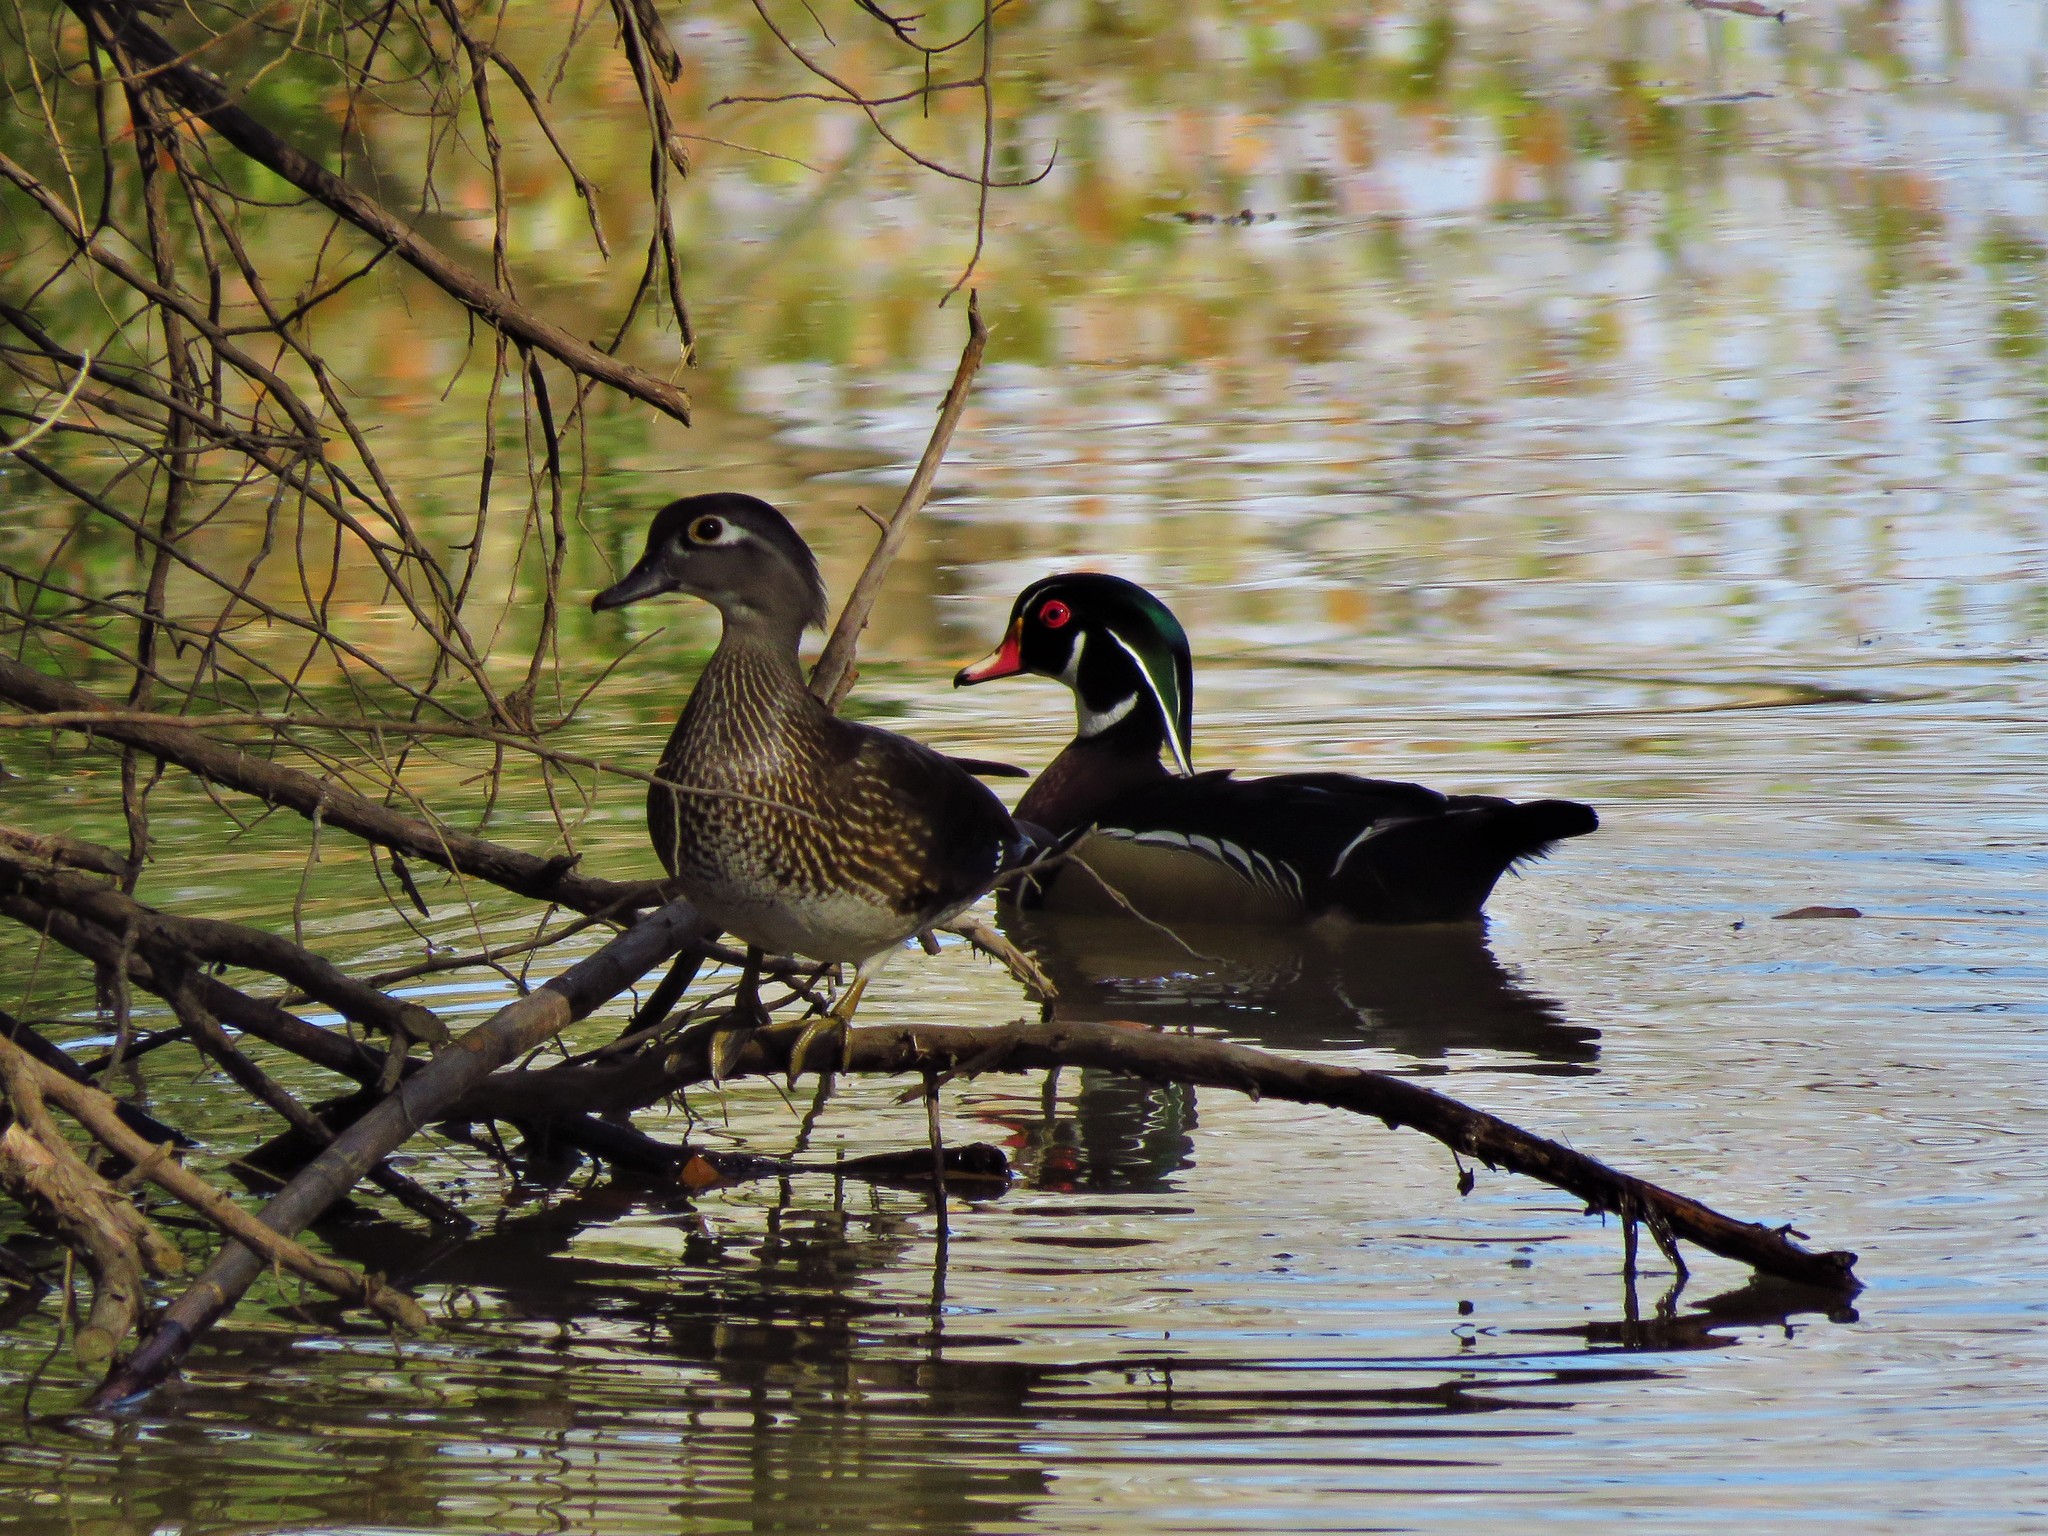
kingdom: Animalia
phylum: Chordata
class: Aves
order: Anseriformes
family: Anatidae
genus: Aix
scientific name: Aix sponsa
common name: Wood duck
